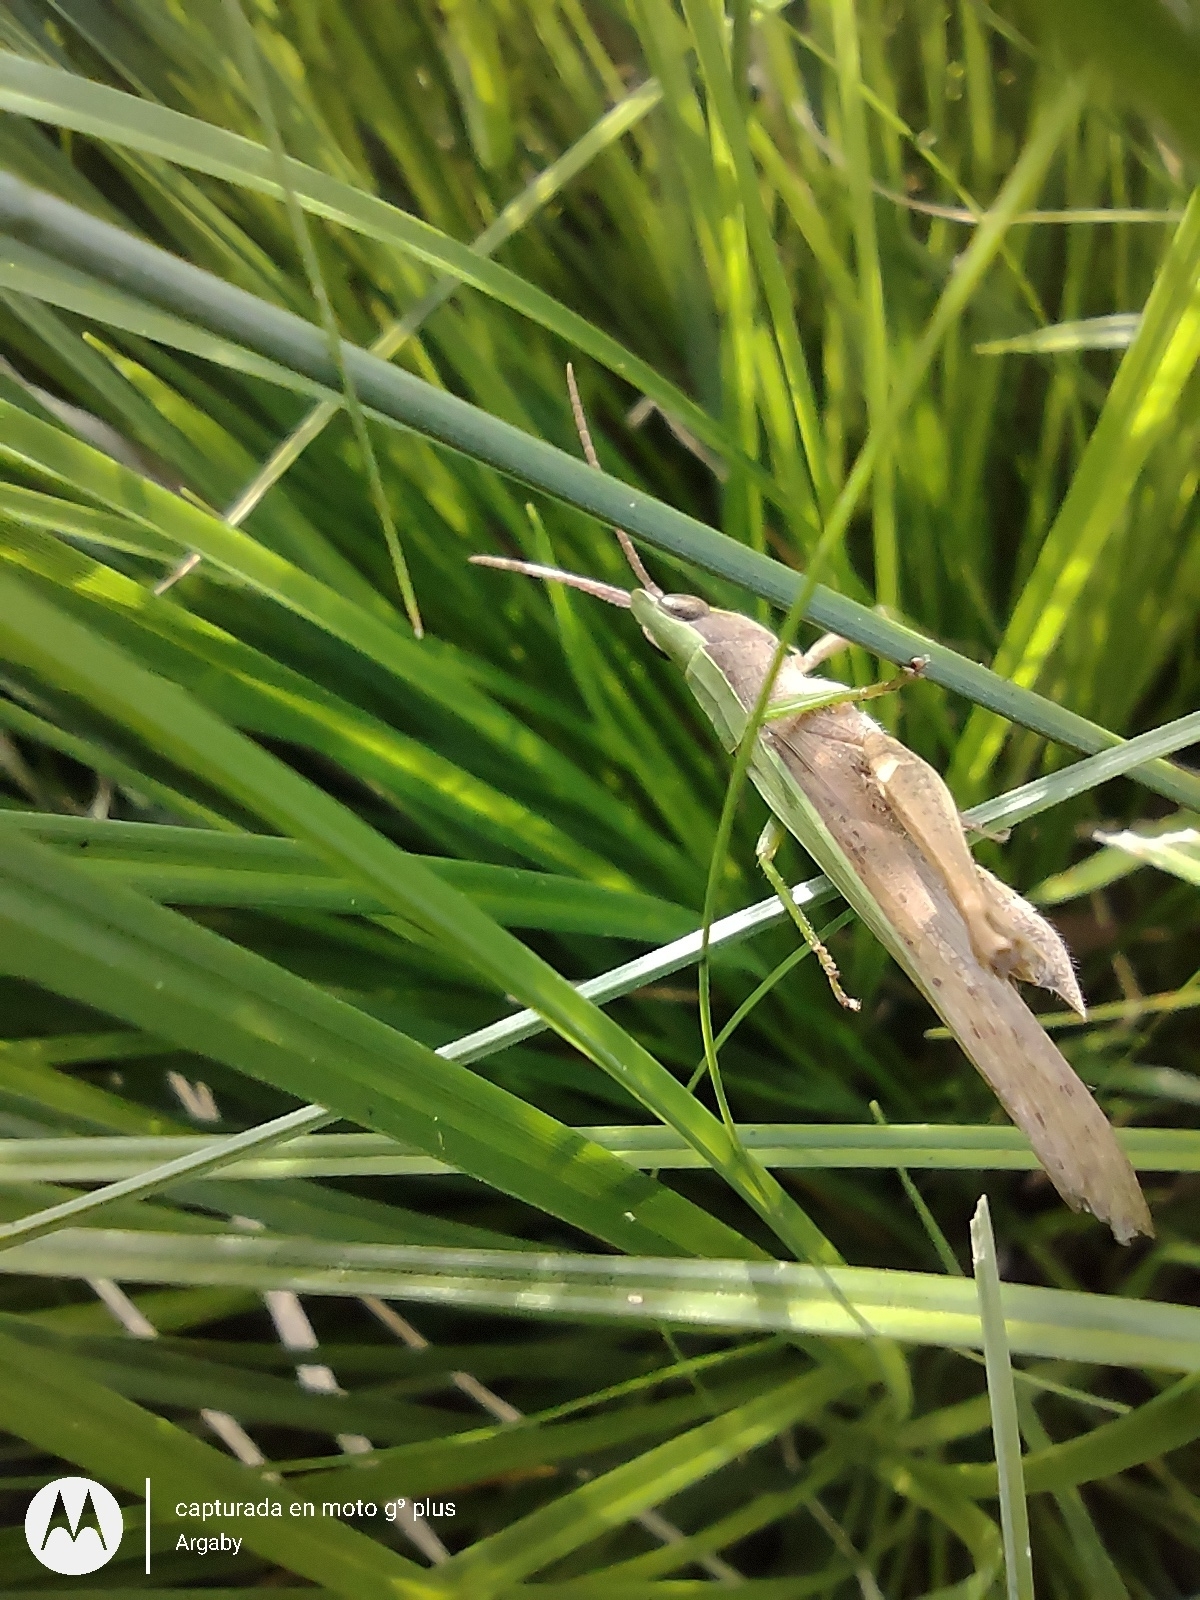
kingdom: Animalia
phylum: Arthropoda
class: Insecta
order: Orthoptera
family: Acrididae
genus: Metaleptea
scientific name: Metaleptea adspersa
